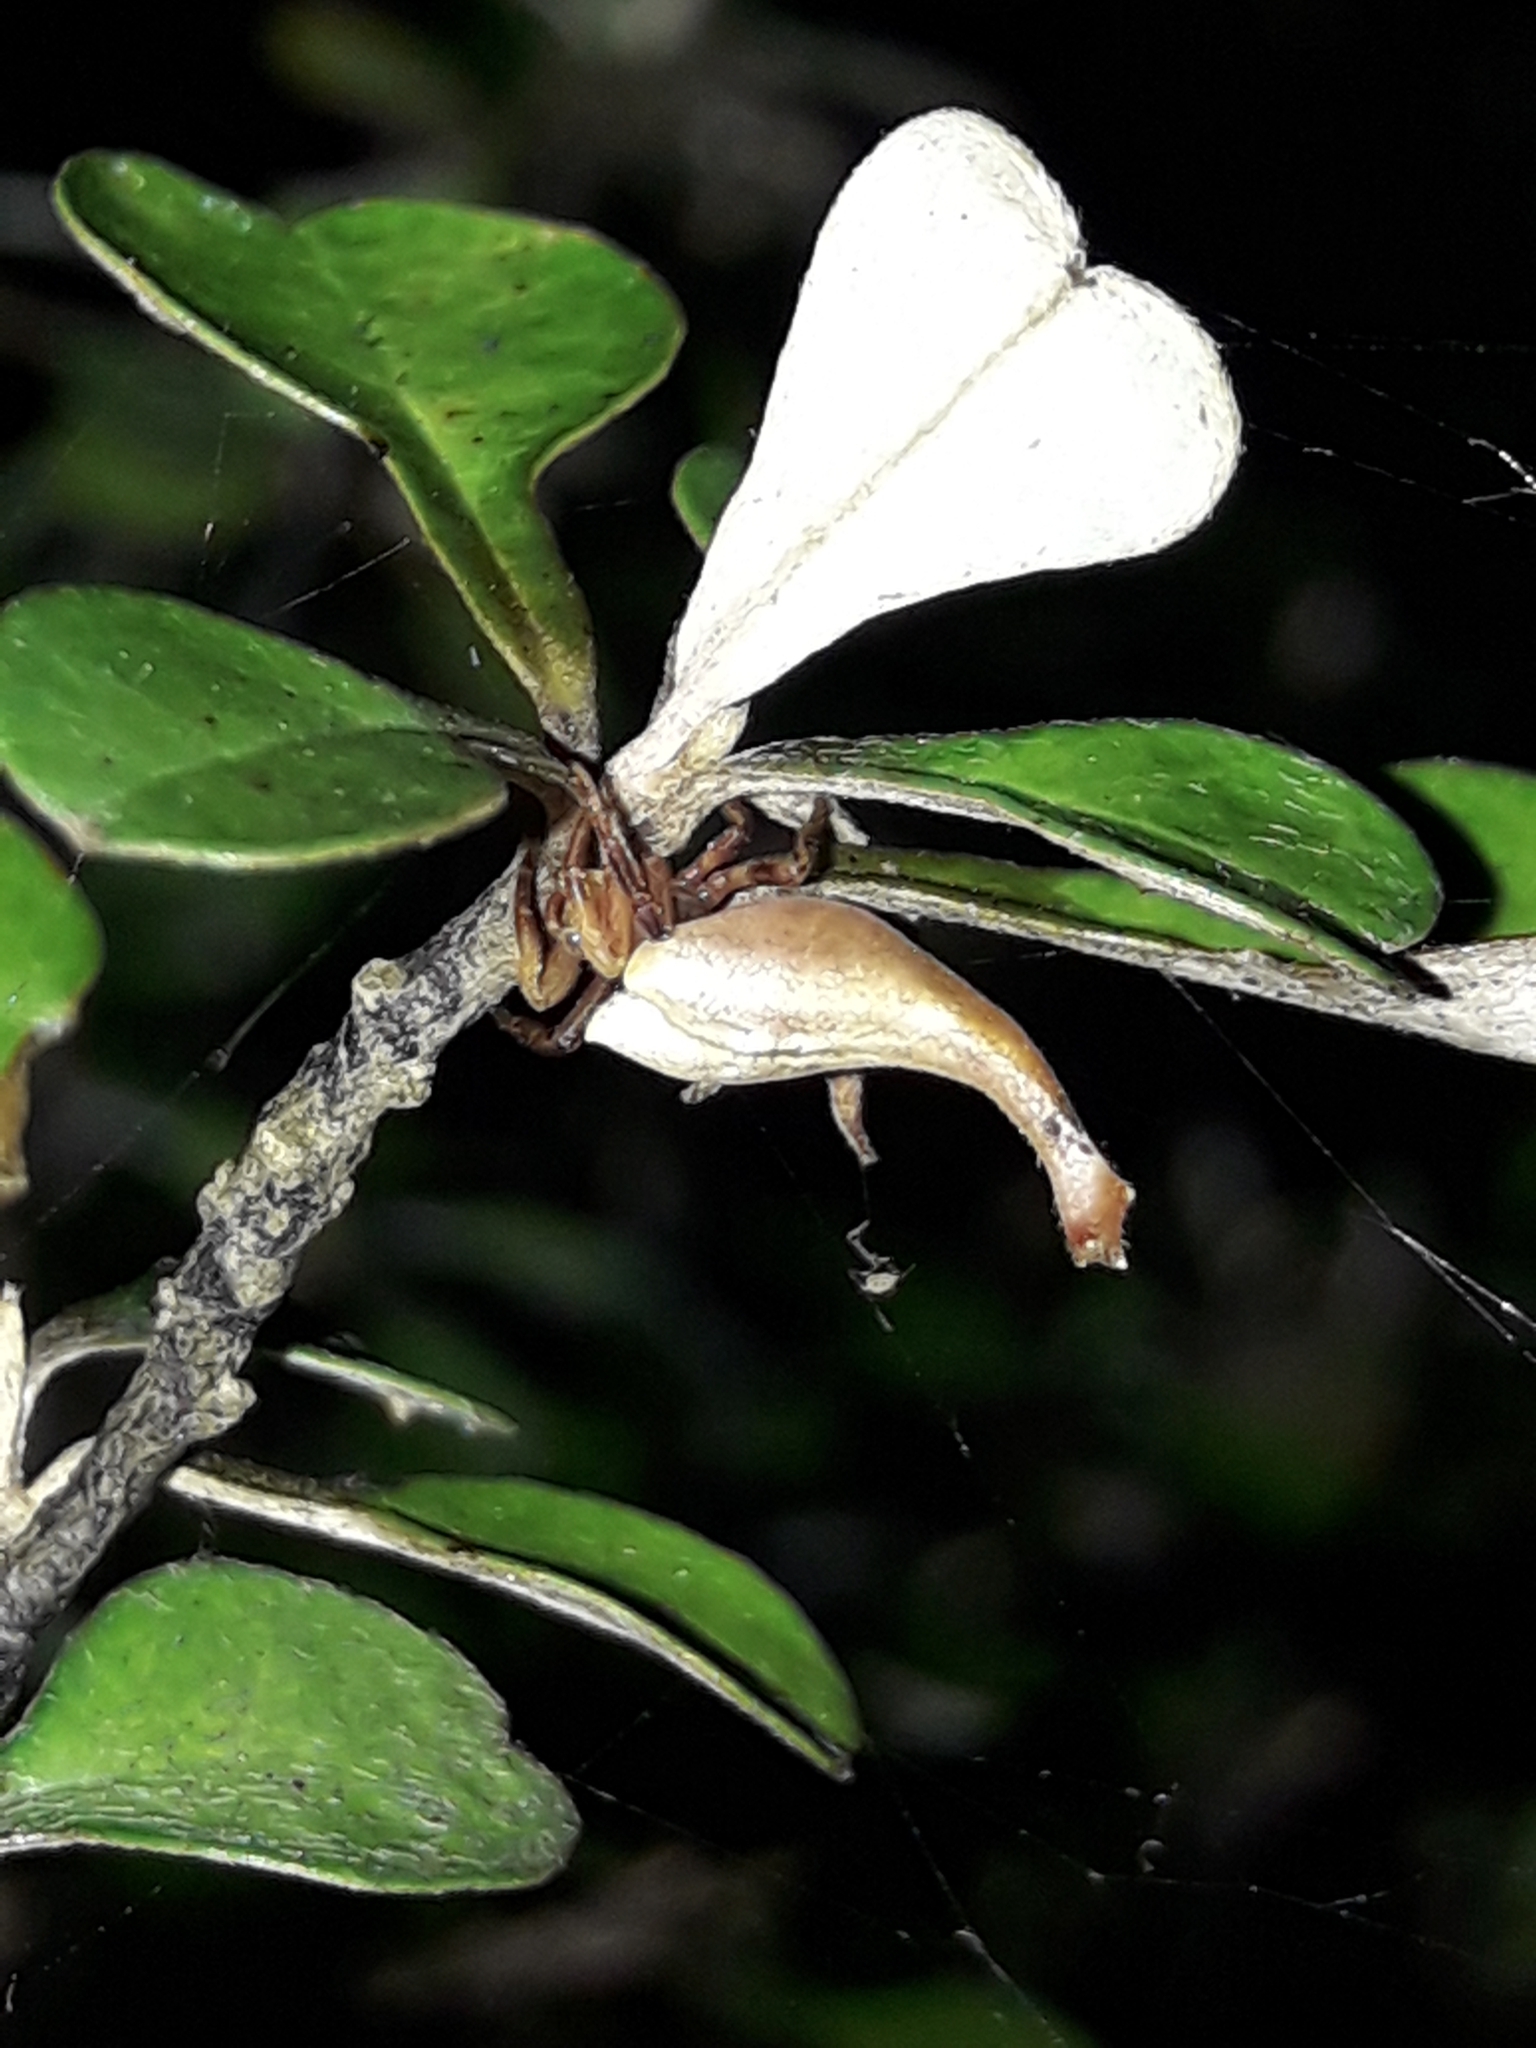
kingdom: Animalia
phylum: Arthropoda
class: Arachnida
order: Araneae
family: Araneidae
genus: Arachnura
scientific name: Arachnura feredayi
